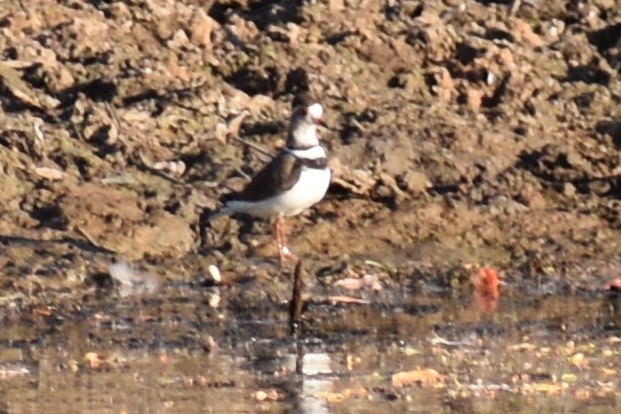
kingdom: Animalia
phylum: Chordata
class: Aves
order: Charadriiformes
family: Charadriidae
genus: Charadrius
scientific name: Charadrius tricollaris
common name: Three-banded plover
